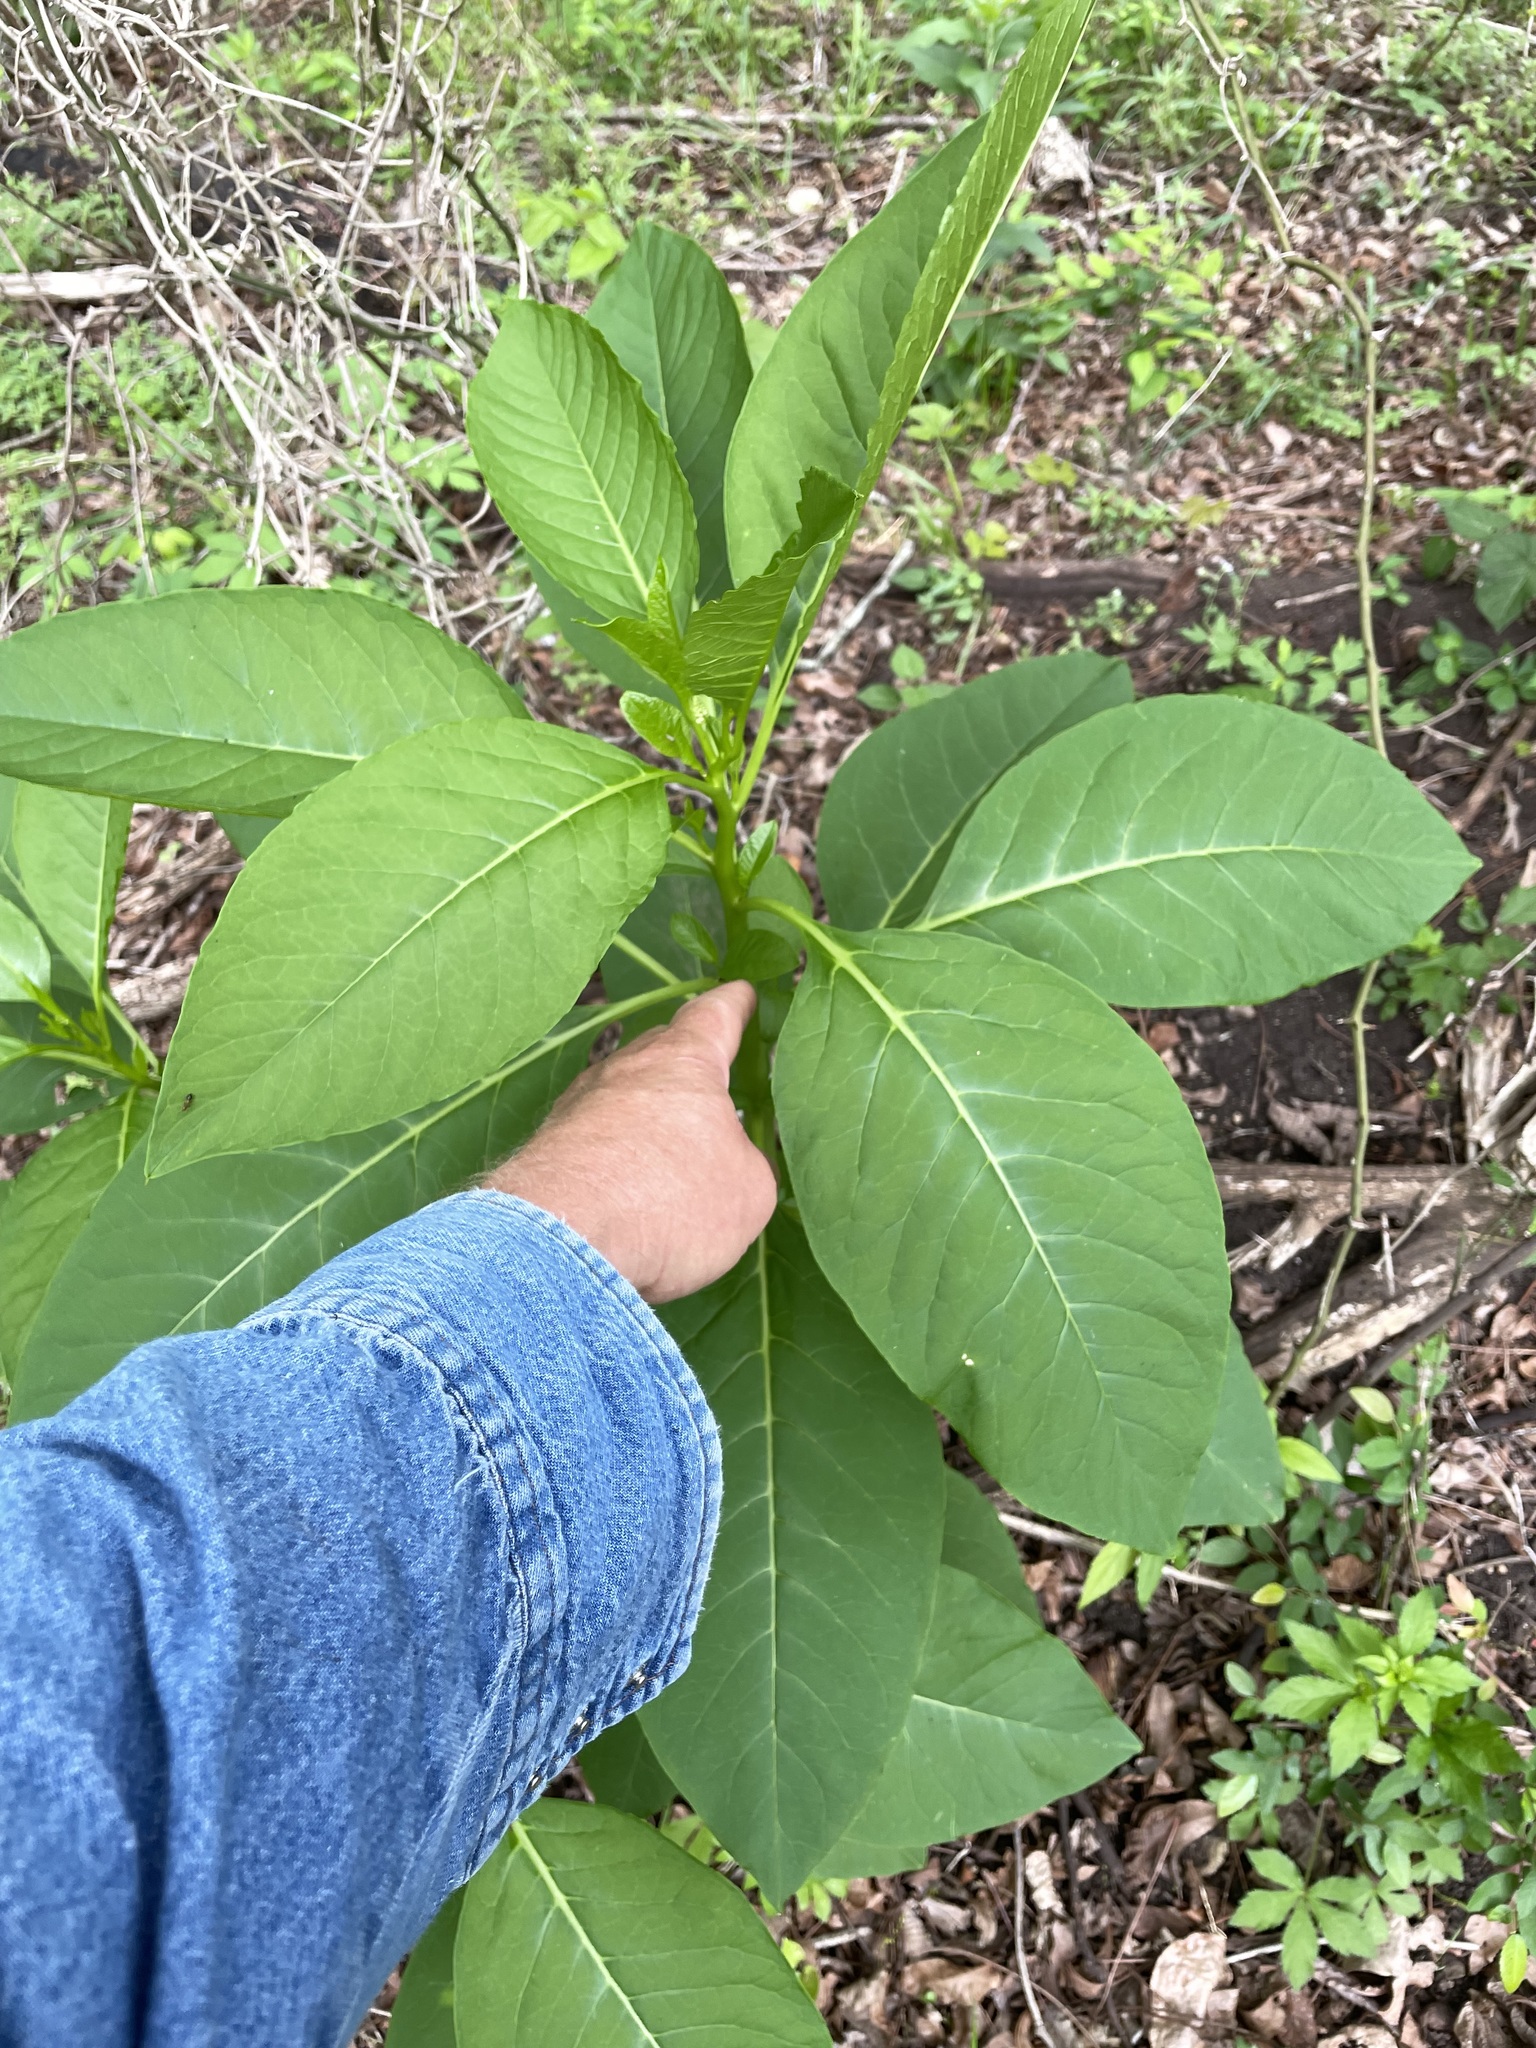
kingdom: Plantae
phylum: Tracheophyta
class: Magnoliopsida
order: Caryophyllales
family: Phytolaccaceae
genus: Phytolacca
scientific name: Phytolacca americana
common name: American pokeweed
